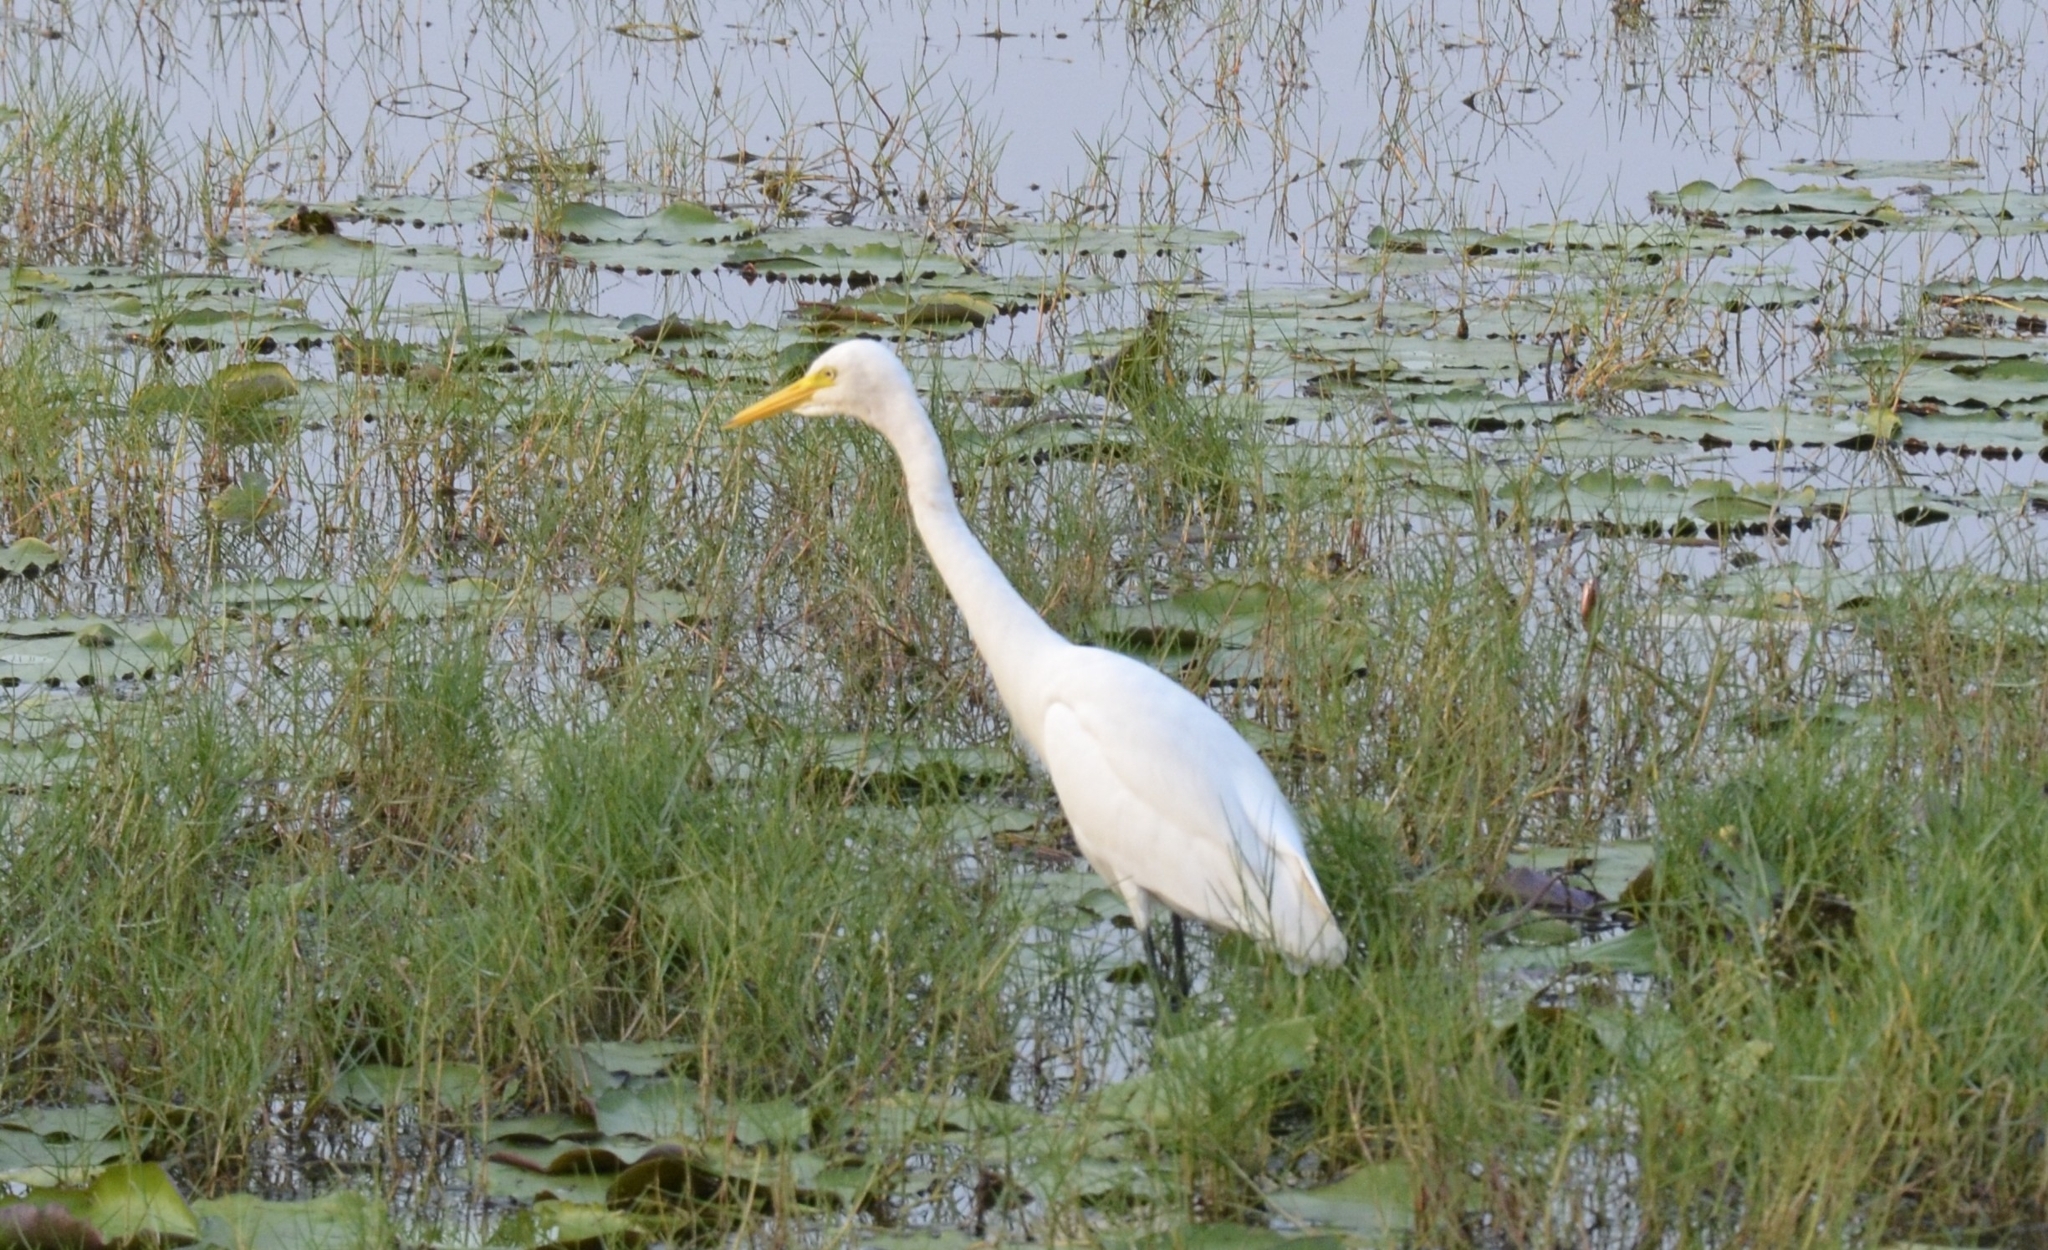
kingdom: Animalia
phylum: Chordata
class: Aves
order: Pelecaniformes
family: Ardeidae
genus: Egretta
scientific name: Egretta intermedia
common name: Intermediate egret
